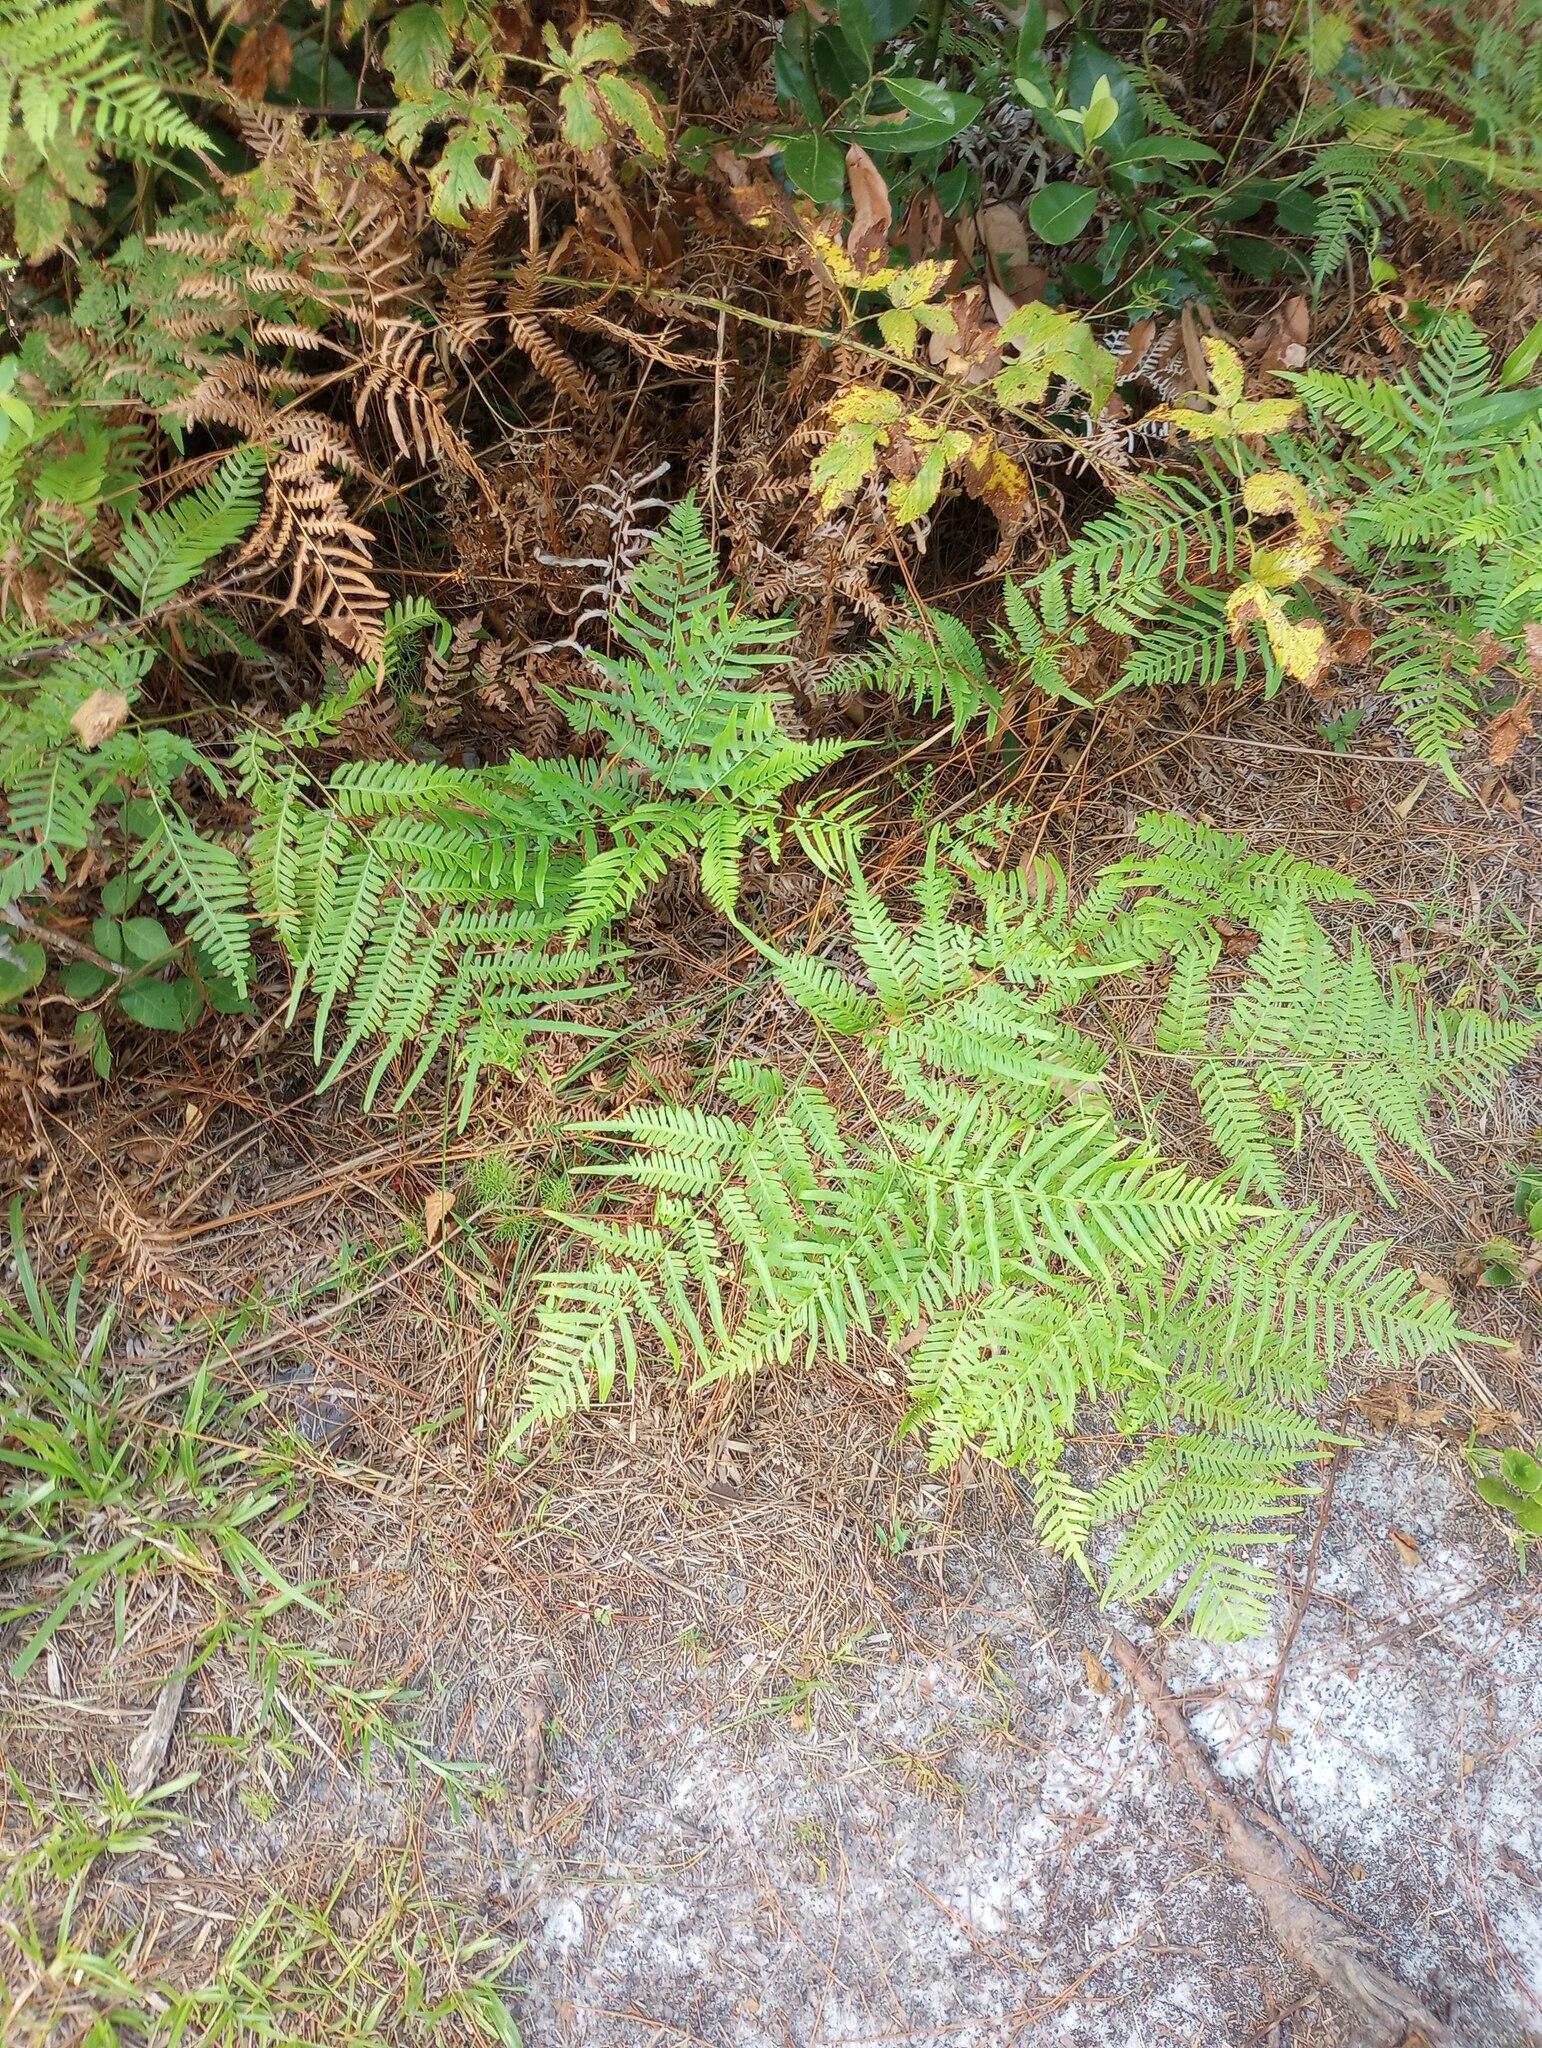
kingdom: Plantae
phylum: Tracheophyta
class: Polypodiopsida
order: Polypodiales
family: Dennstaedtiaceae
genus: Pteridium
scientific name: Pteridium
